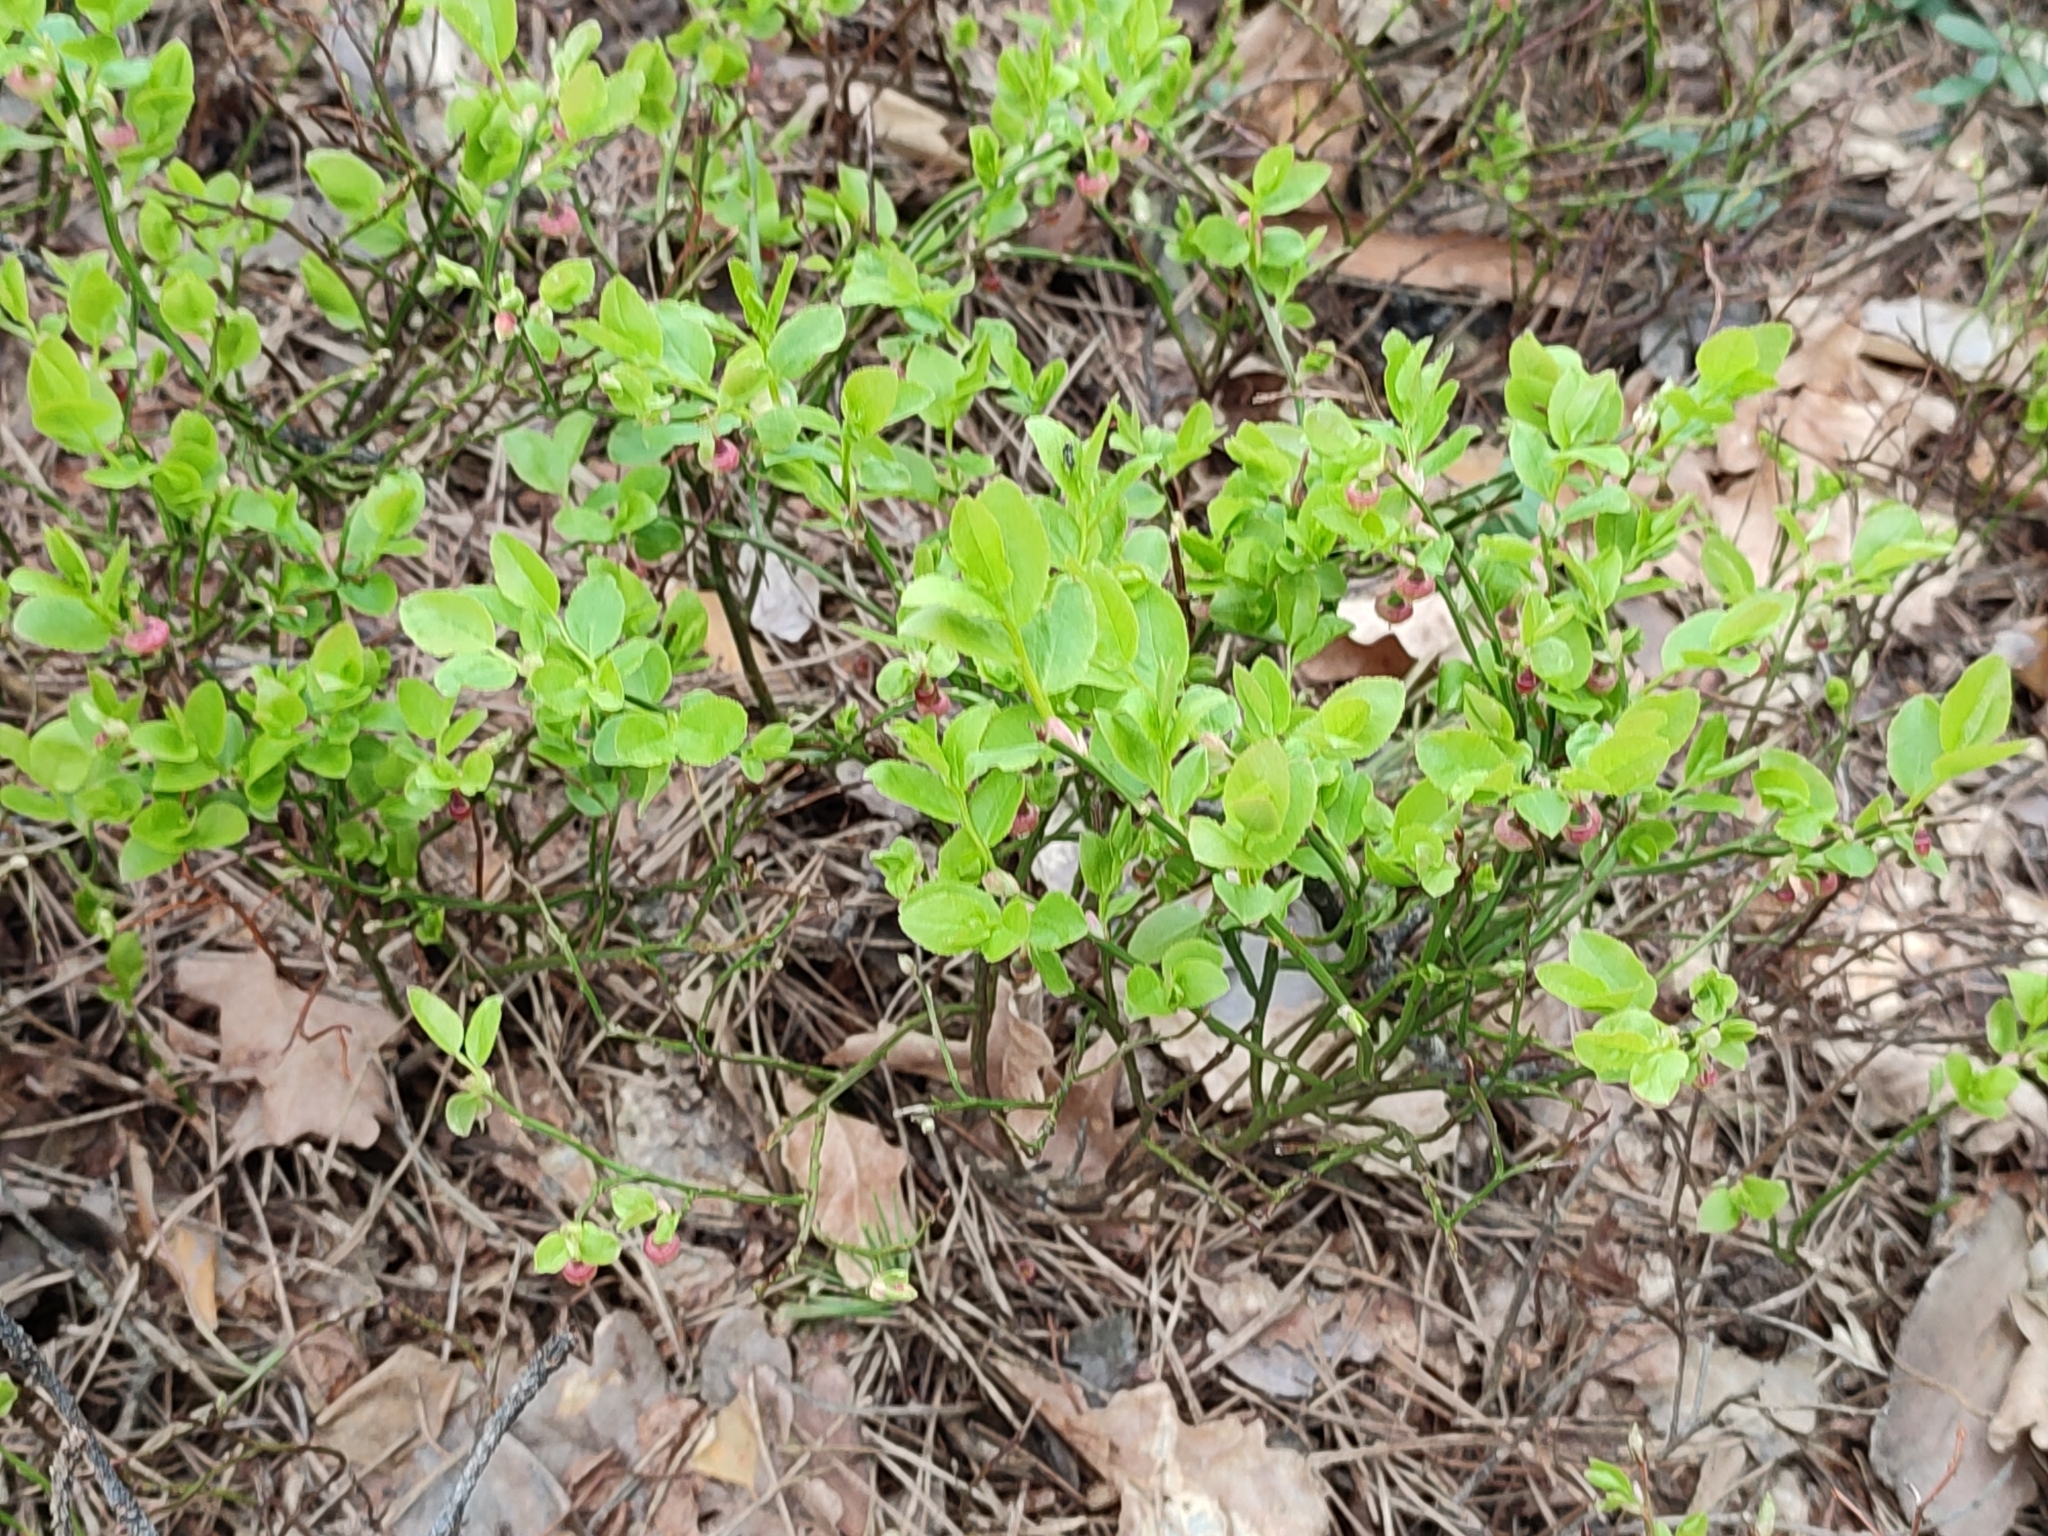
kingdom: Plantae
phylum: Tracheophyta
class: Magnoliopsida
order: Ericales
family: Ericaceae
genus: Vaccinium
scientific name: Vaccinium myrtillus
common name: Bilberry
